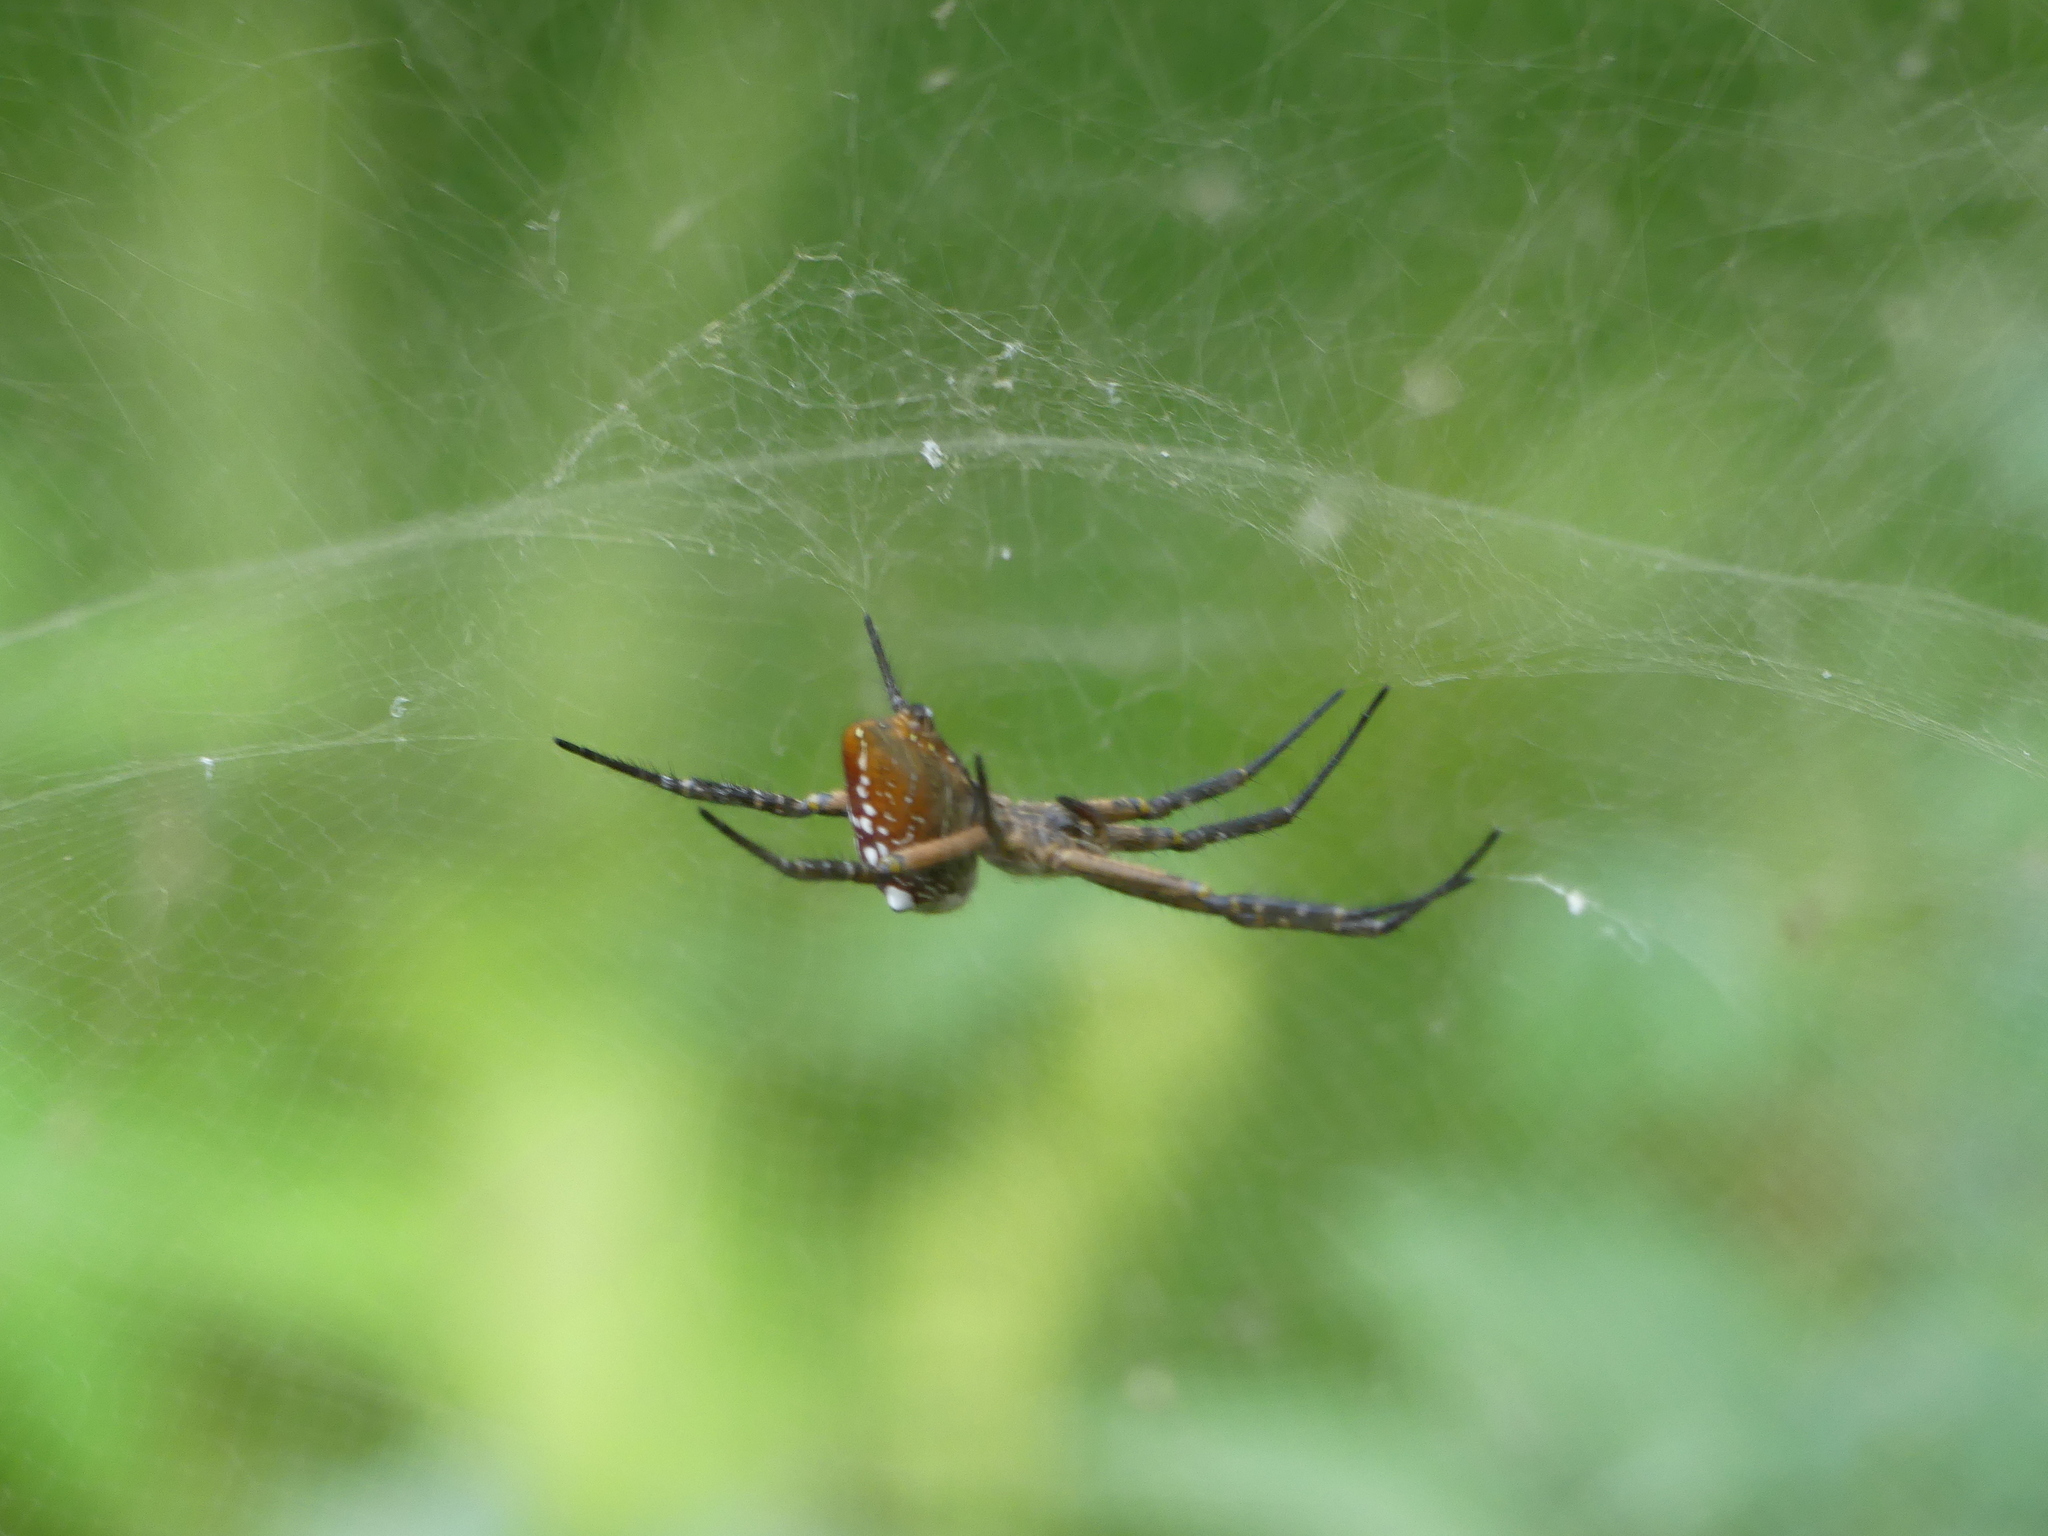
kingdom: Chromista
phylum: Ochrophyta
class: Dictyochophyceae
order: Pedinellales
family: Cyrtophoraceae
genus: Cyrtophora
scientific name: Cyrtophora moluccensis
